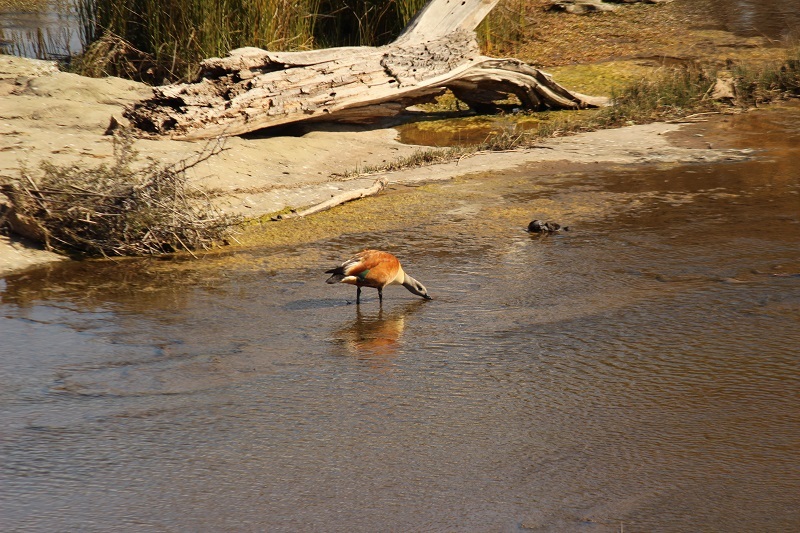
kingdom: Animalia
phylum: Chordata
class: Aves
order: Anseriformes
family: Anatidae
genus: Tadorna
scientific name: Tadorna cana
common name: South african shelduck
